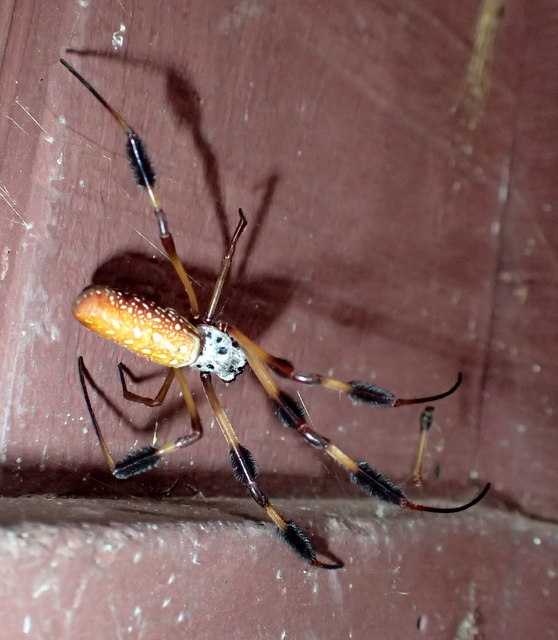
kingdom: Animalia
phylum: Arthropoda
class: Arachnida
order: Araneae
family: Araneidae
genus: Trichonephila
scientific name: Trichonephila clavipes
